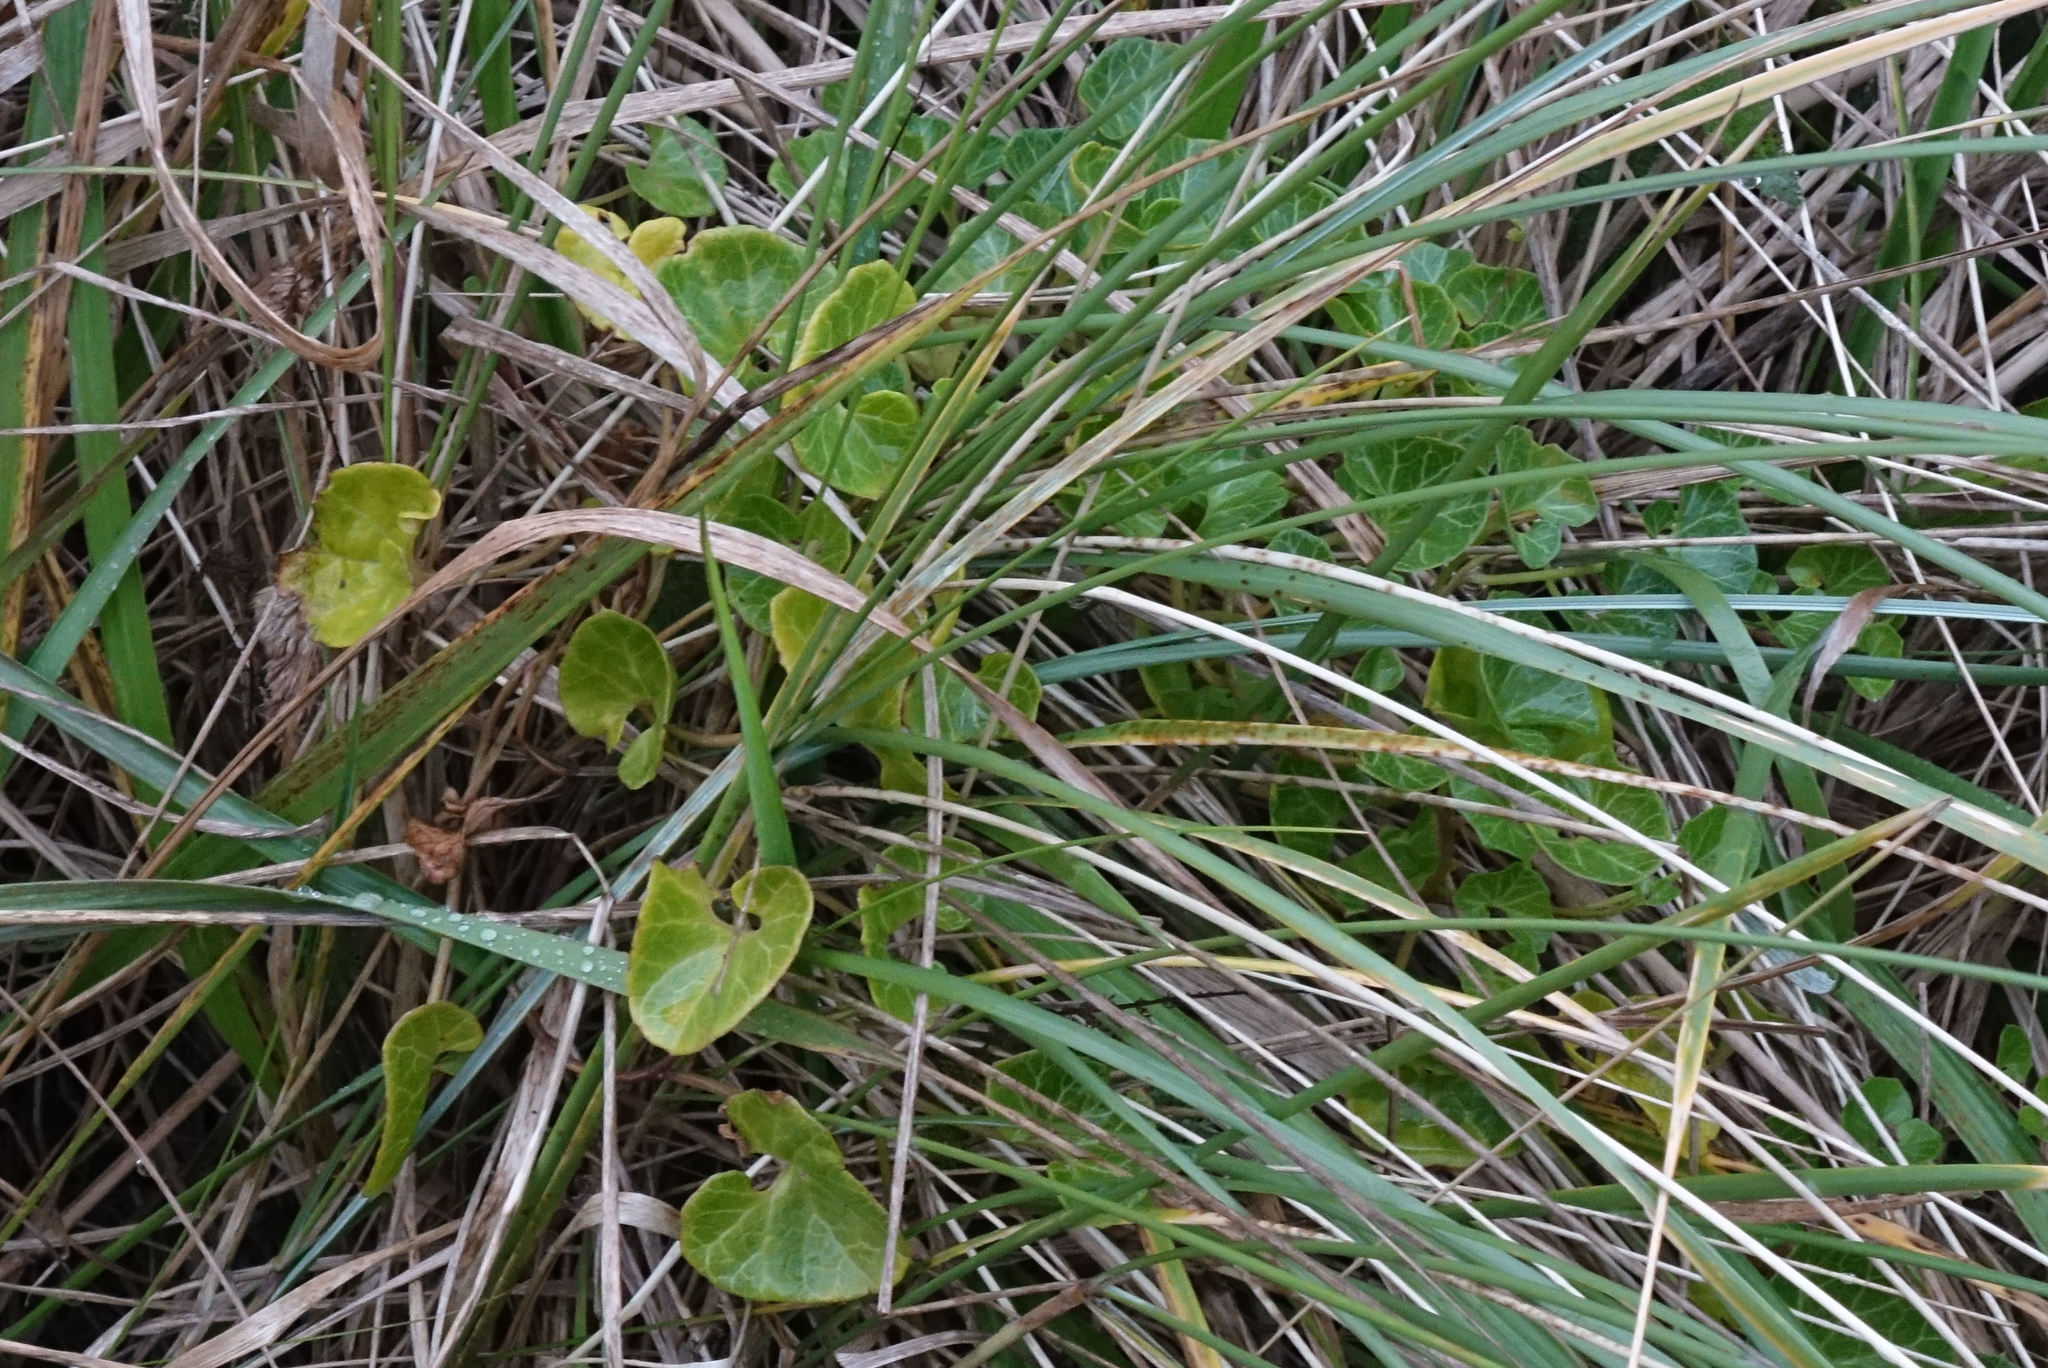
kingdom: Plantae
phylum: Tracheophyta
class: Magnoliopsida
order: Solanales
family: Convolvulaceae
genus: Calystegia
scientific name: Calystegia soldanella
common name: Sea bindweed
